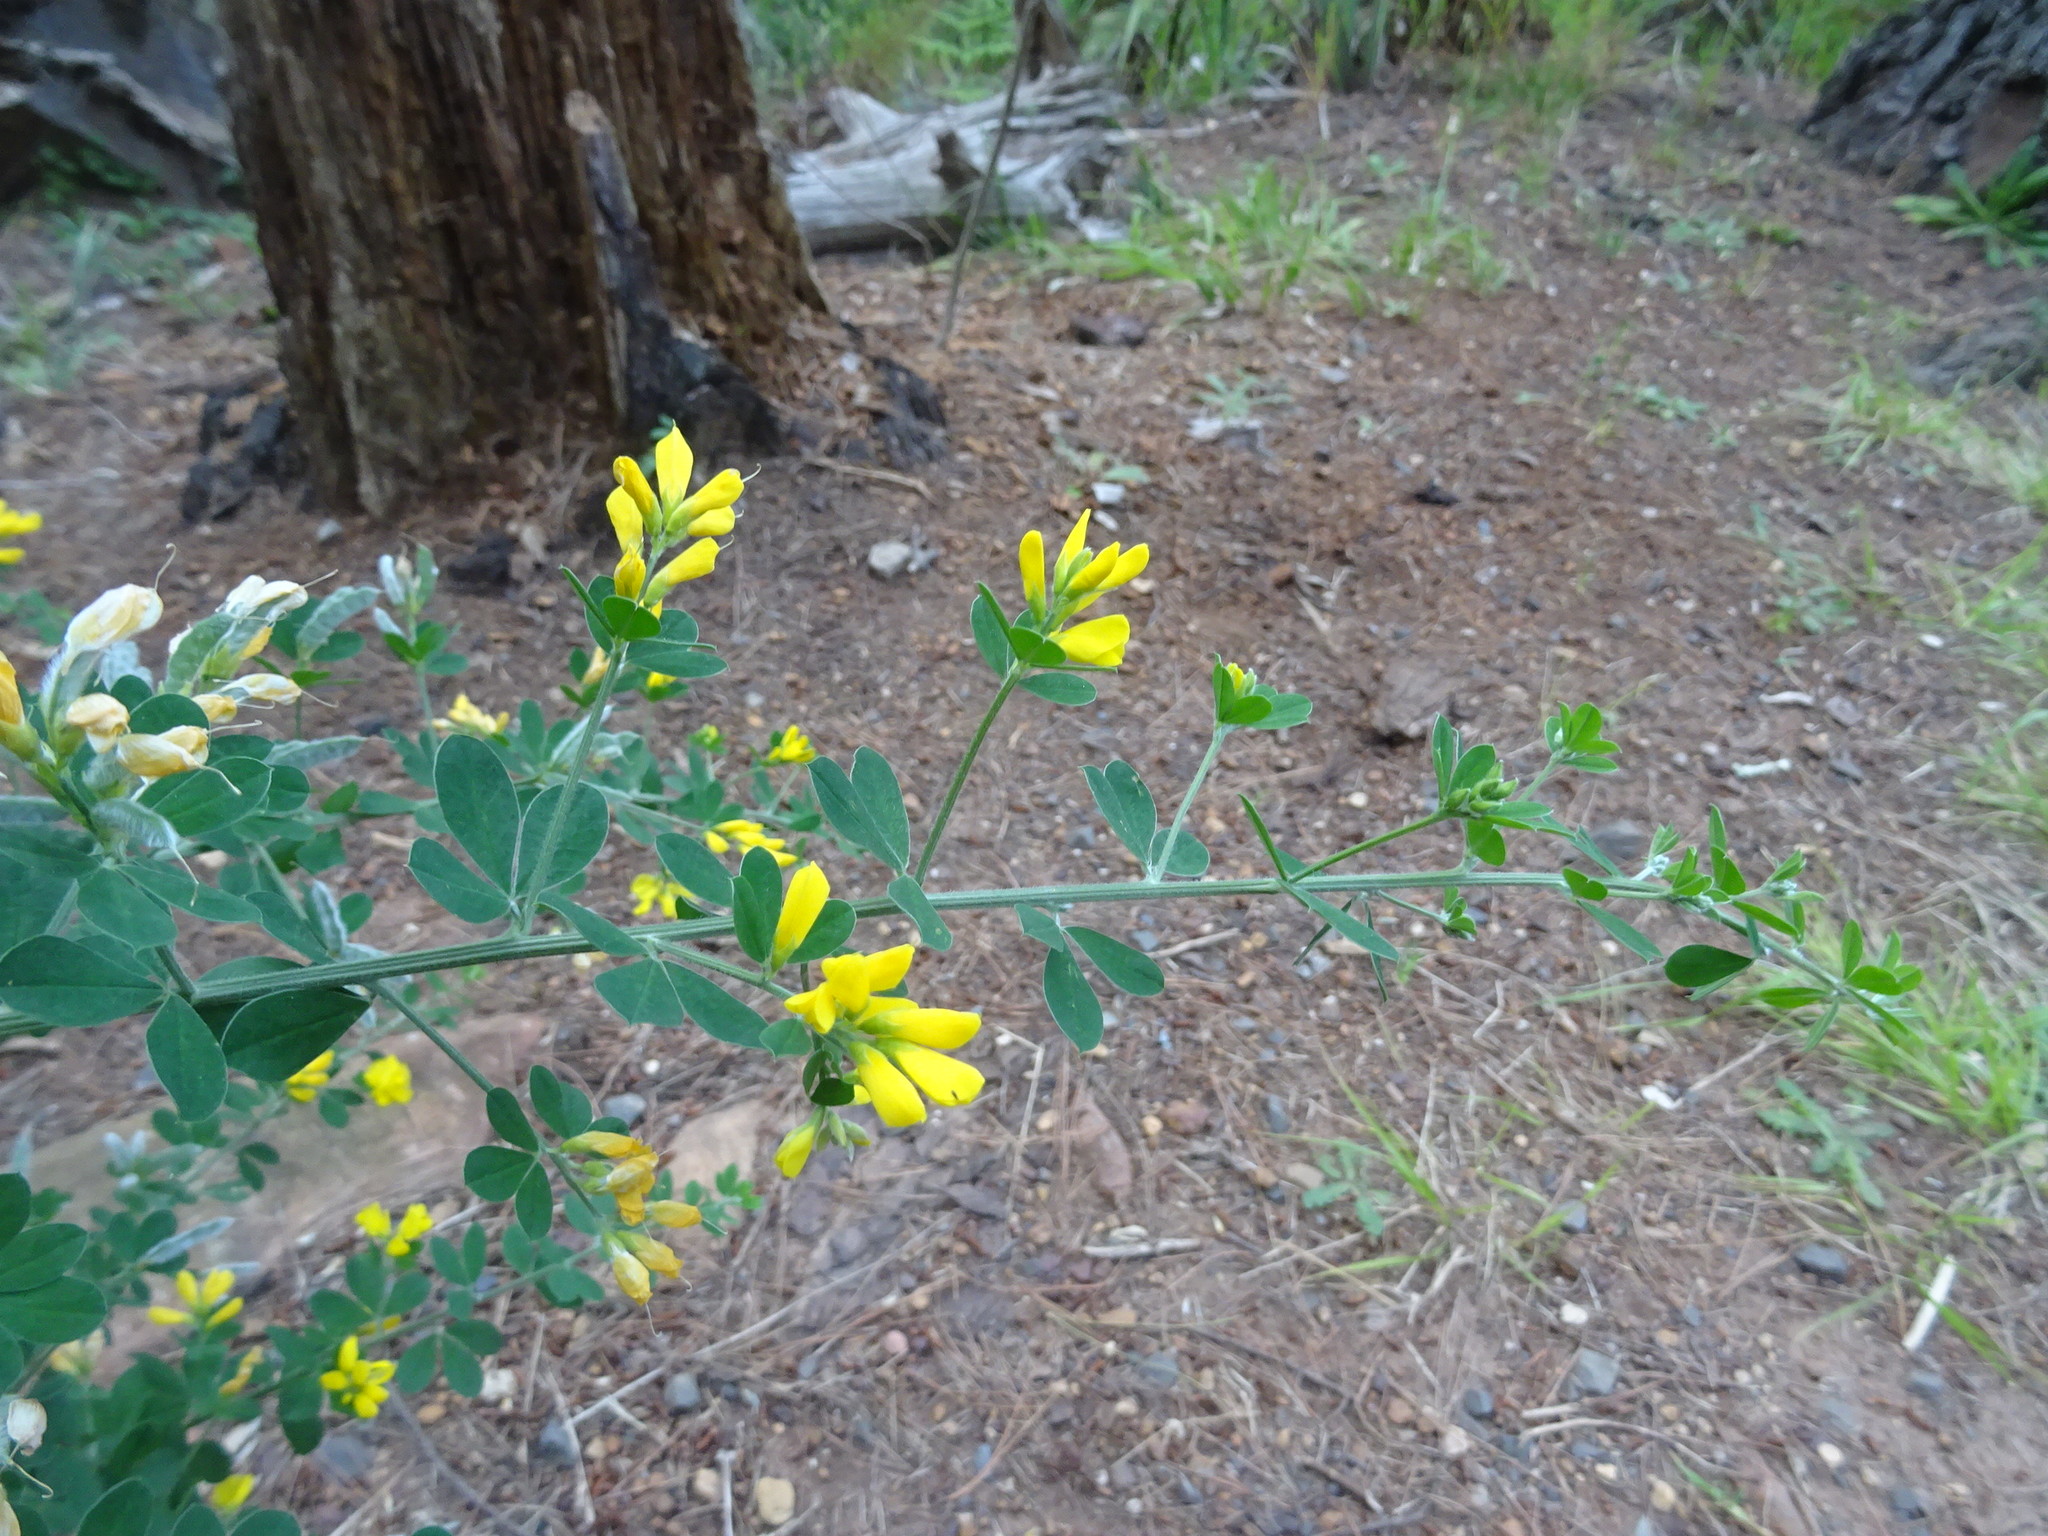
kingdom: Plantae
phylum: Tracheophyta
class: Magnoliopsida
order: Fabales
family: Fabaceae
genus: Genista
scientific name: Genista monspessulana
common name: Montpellier broom
